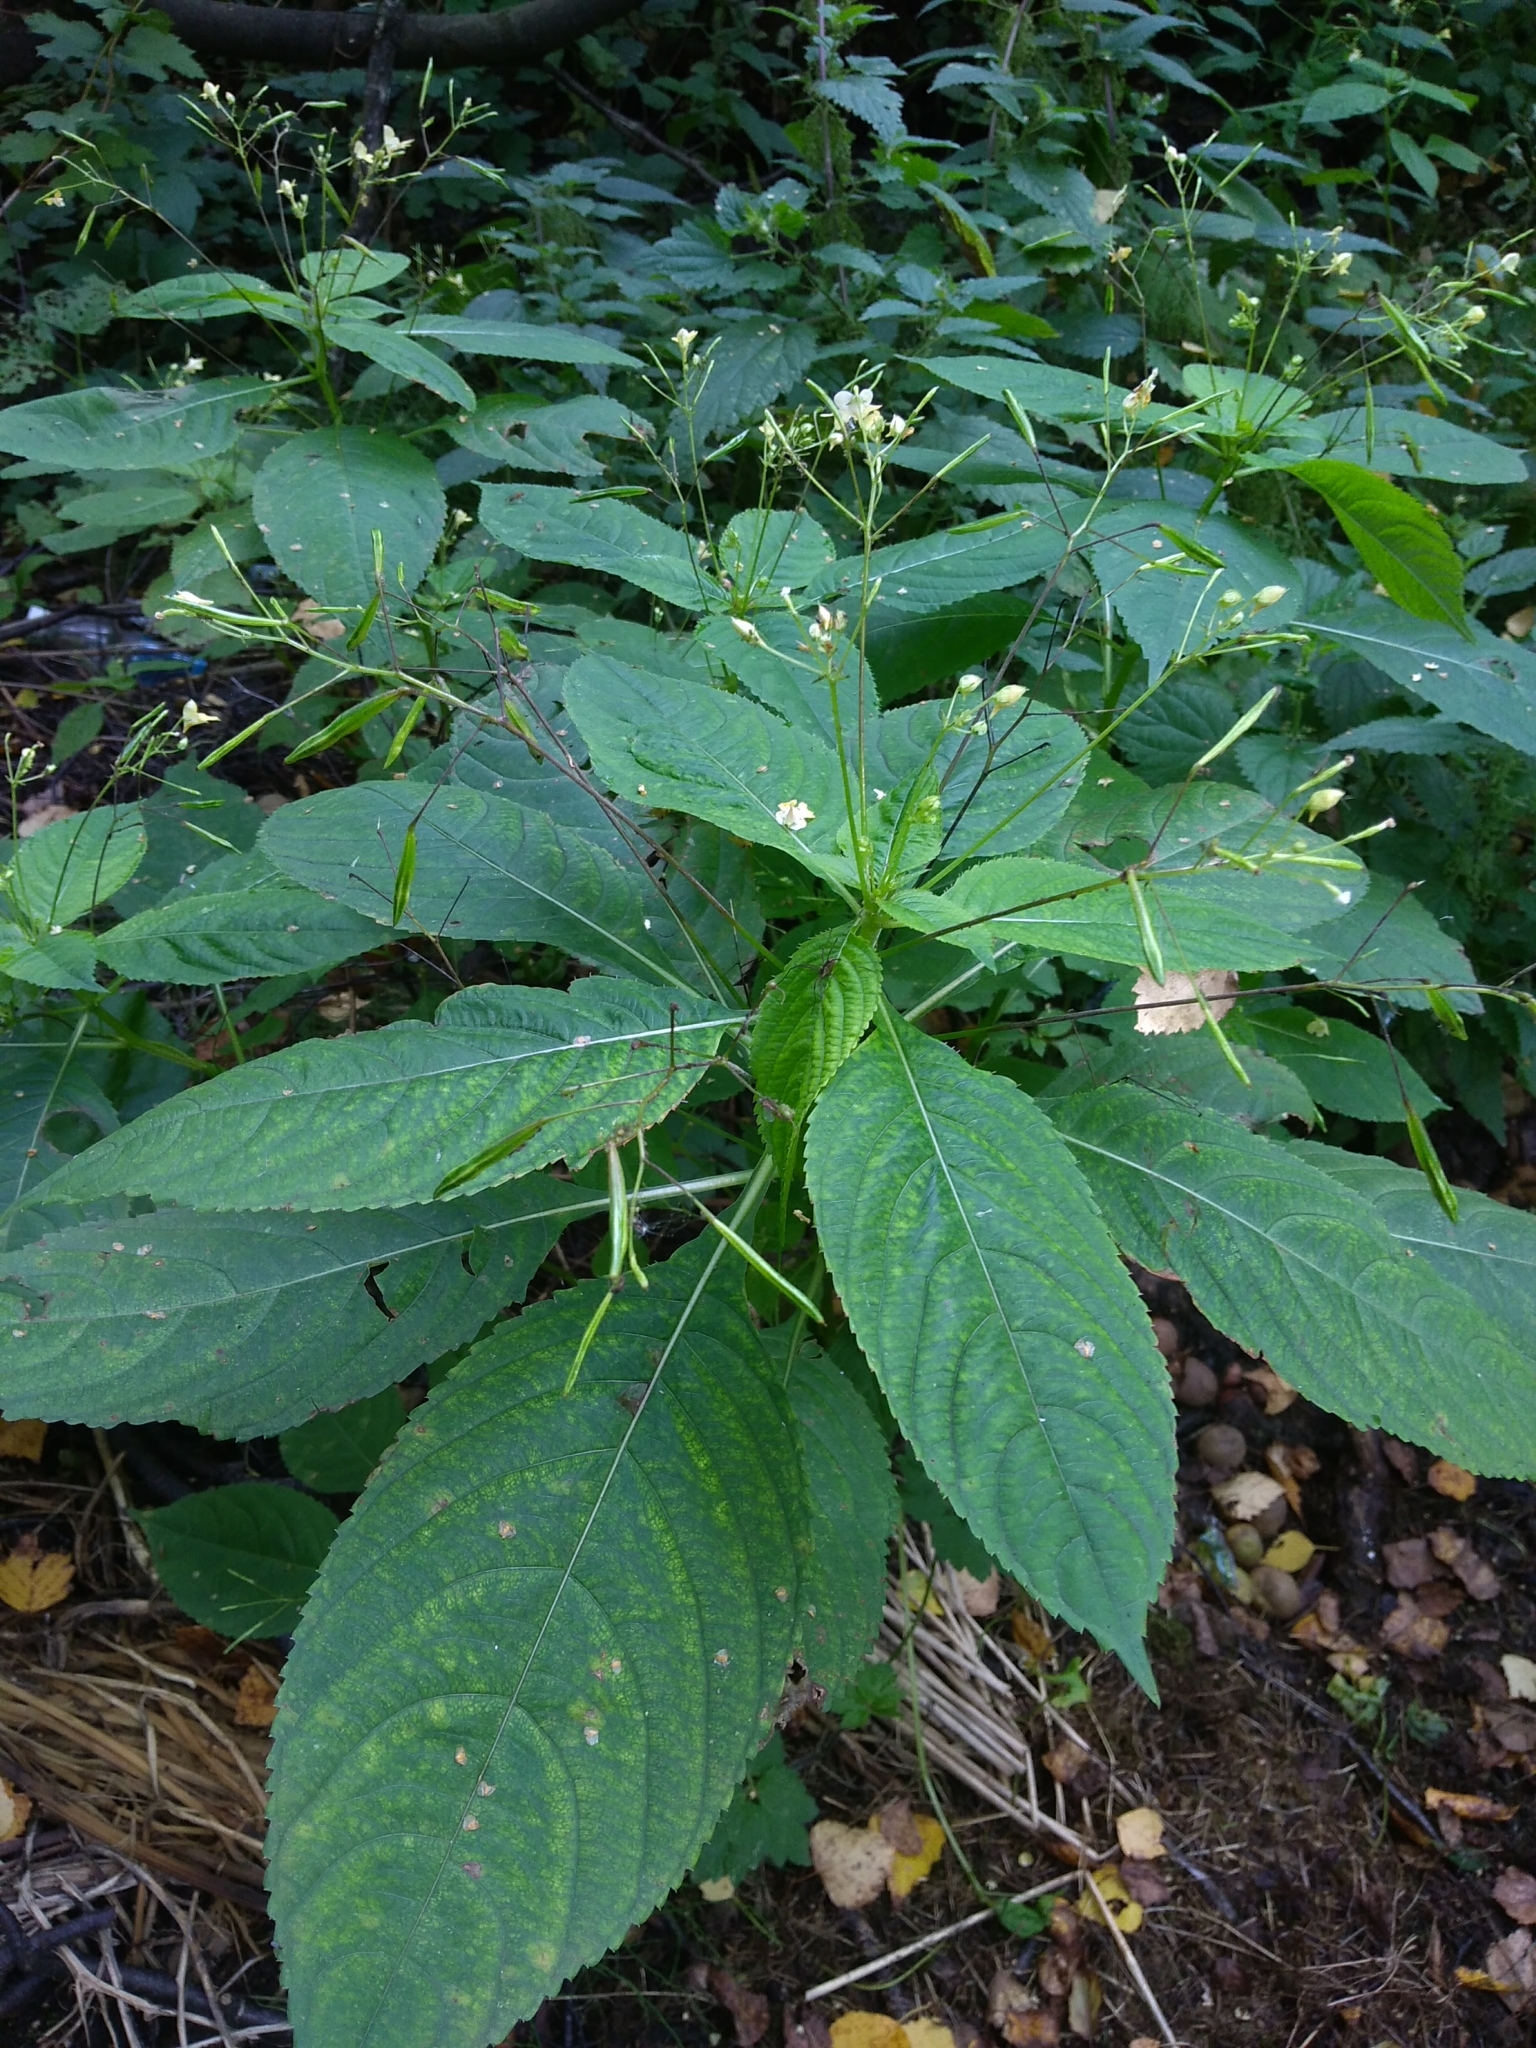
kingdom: Plantae
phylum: Tracheophyta
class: Magnoliopsida
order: Ericales
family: Balsaminaceae
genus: Impatiens
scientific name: Impatiens parviflora
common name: Small balsam
